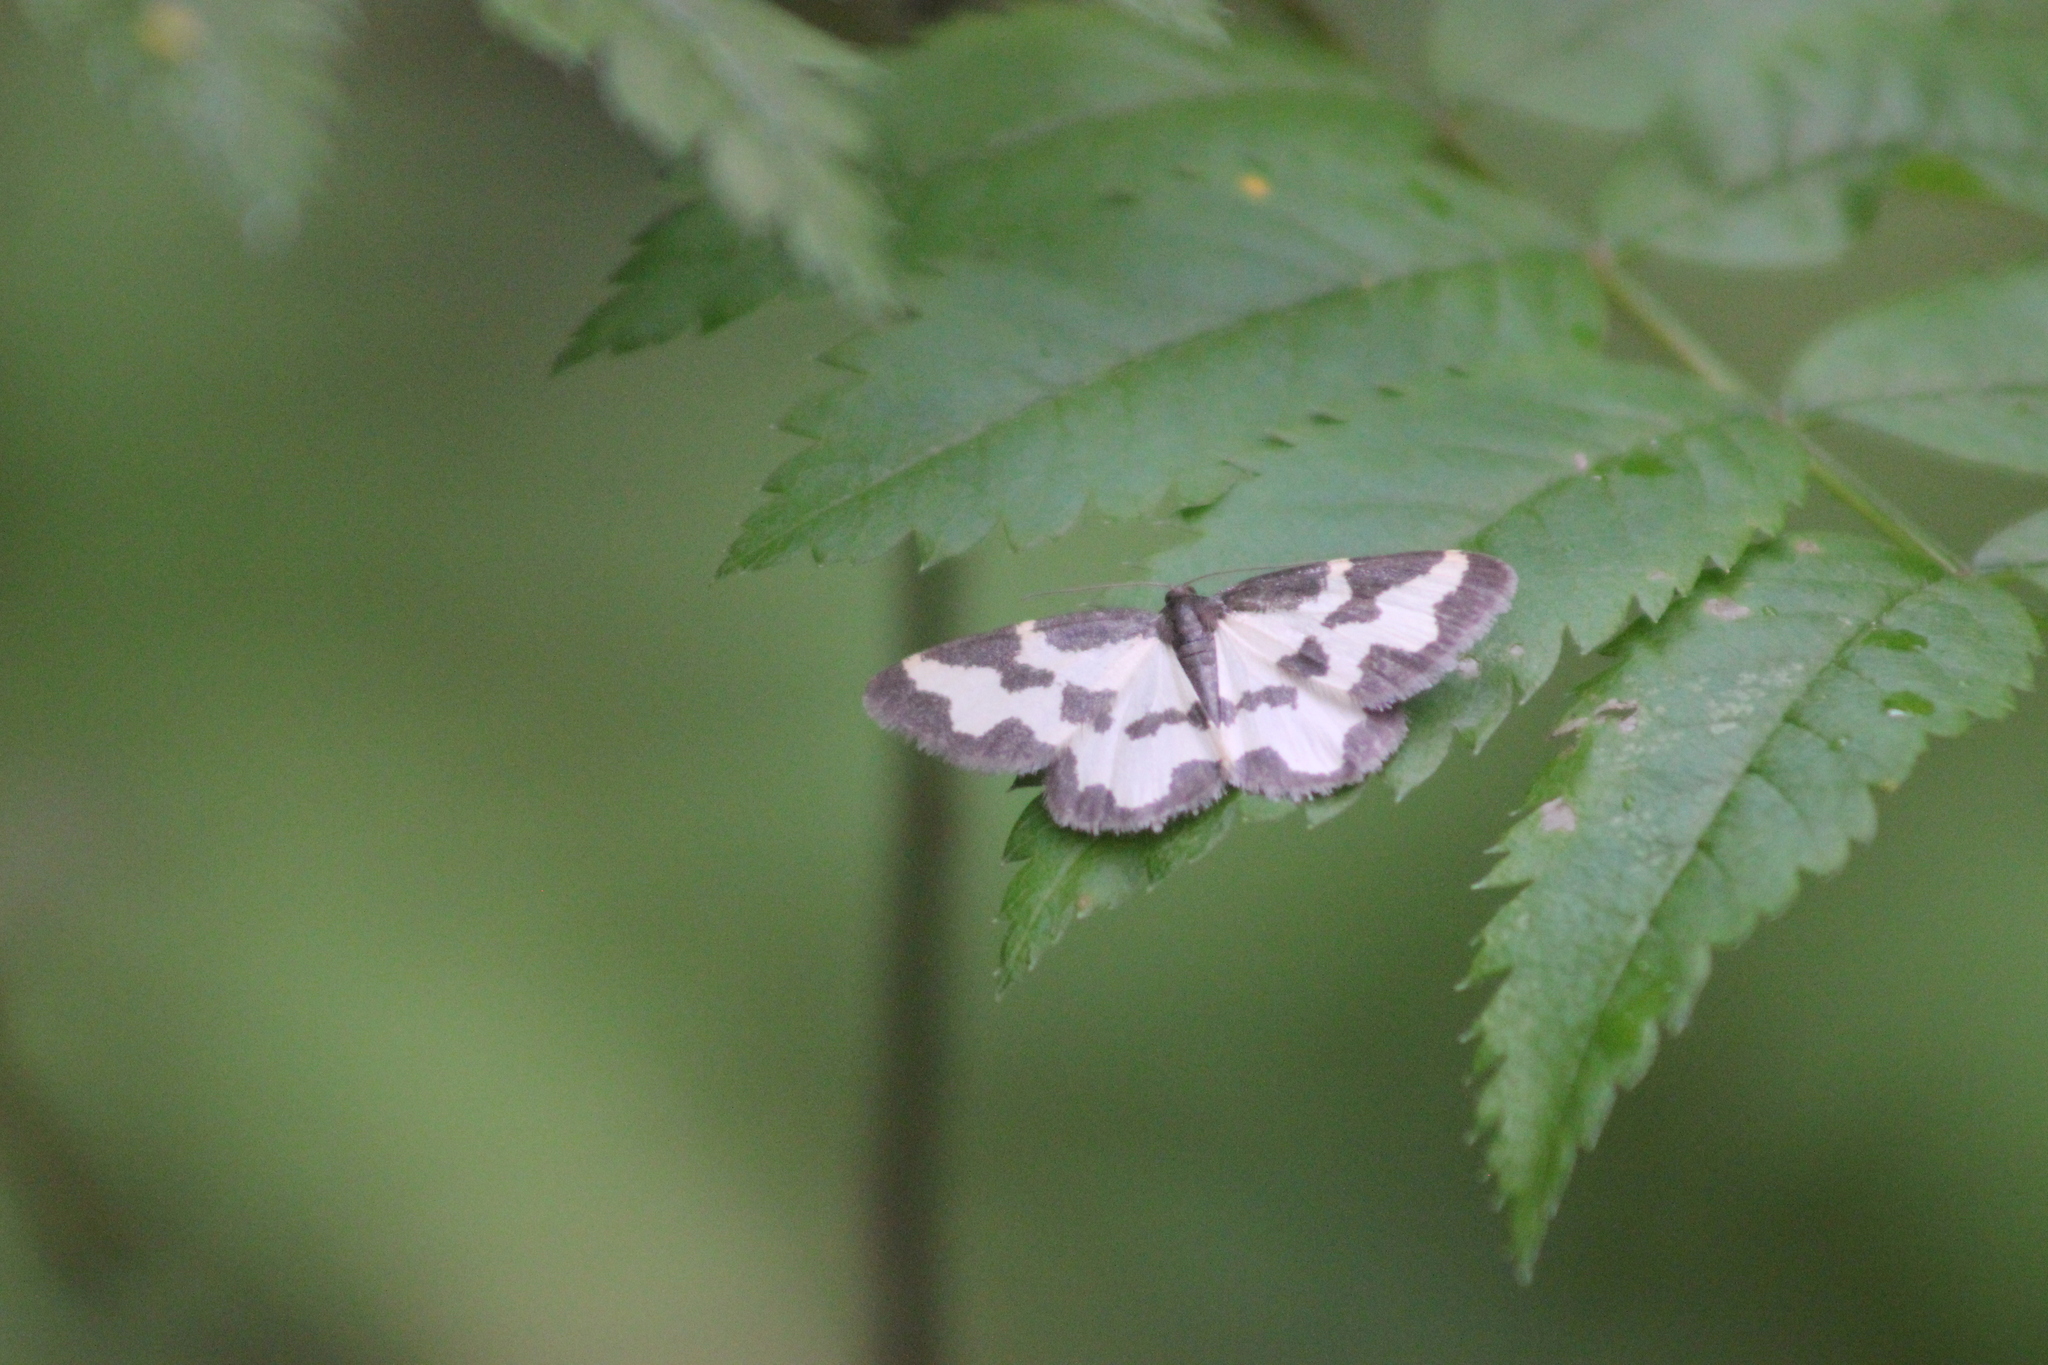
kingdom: Animalia
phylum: Arthropoda
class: Insecta
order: Lepidoptera
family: Geometridae
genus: Lomaspilis
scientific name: Lomaspilis marginata
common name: Clouded border
